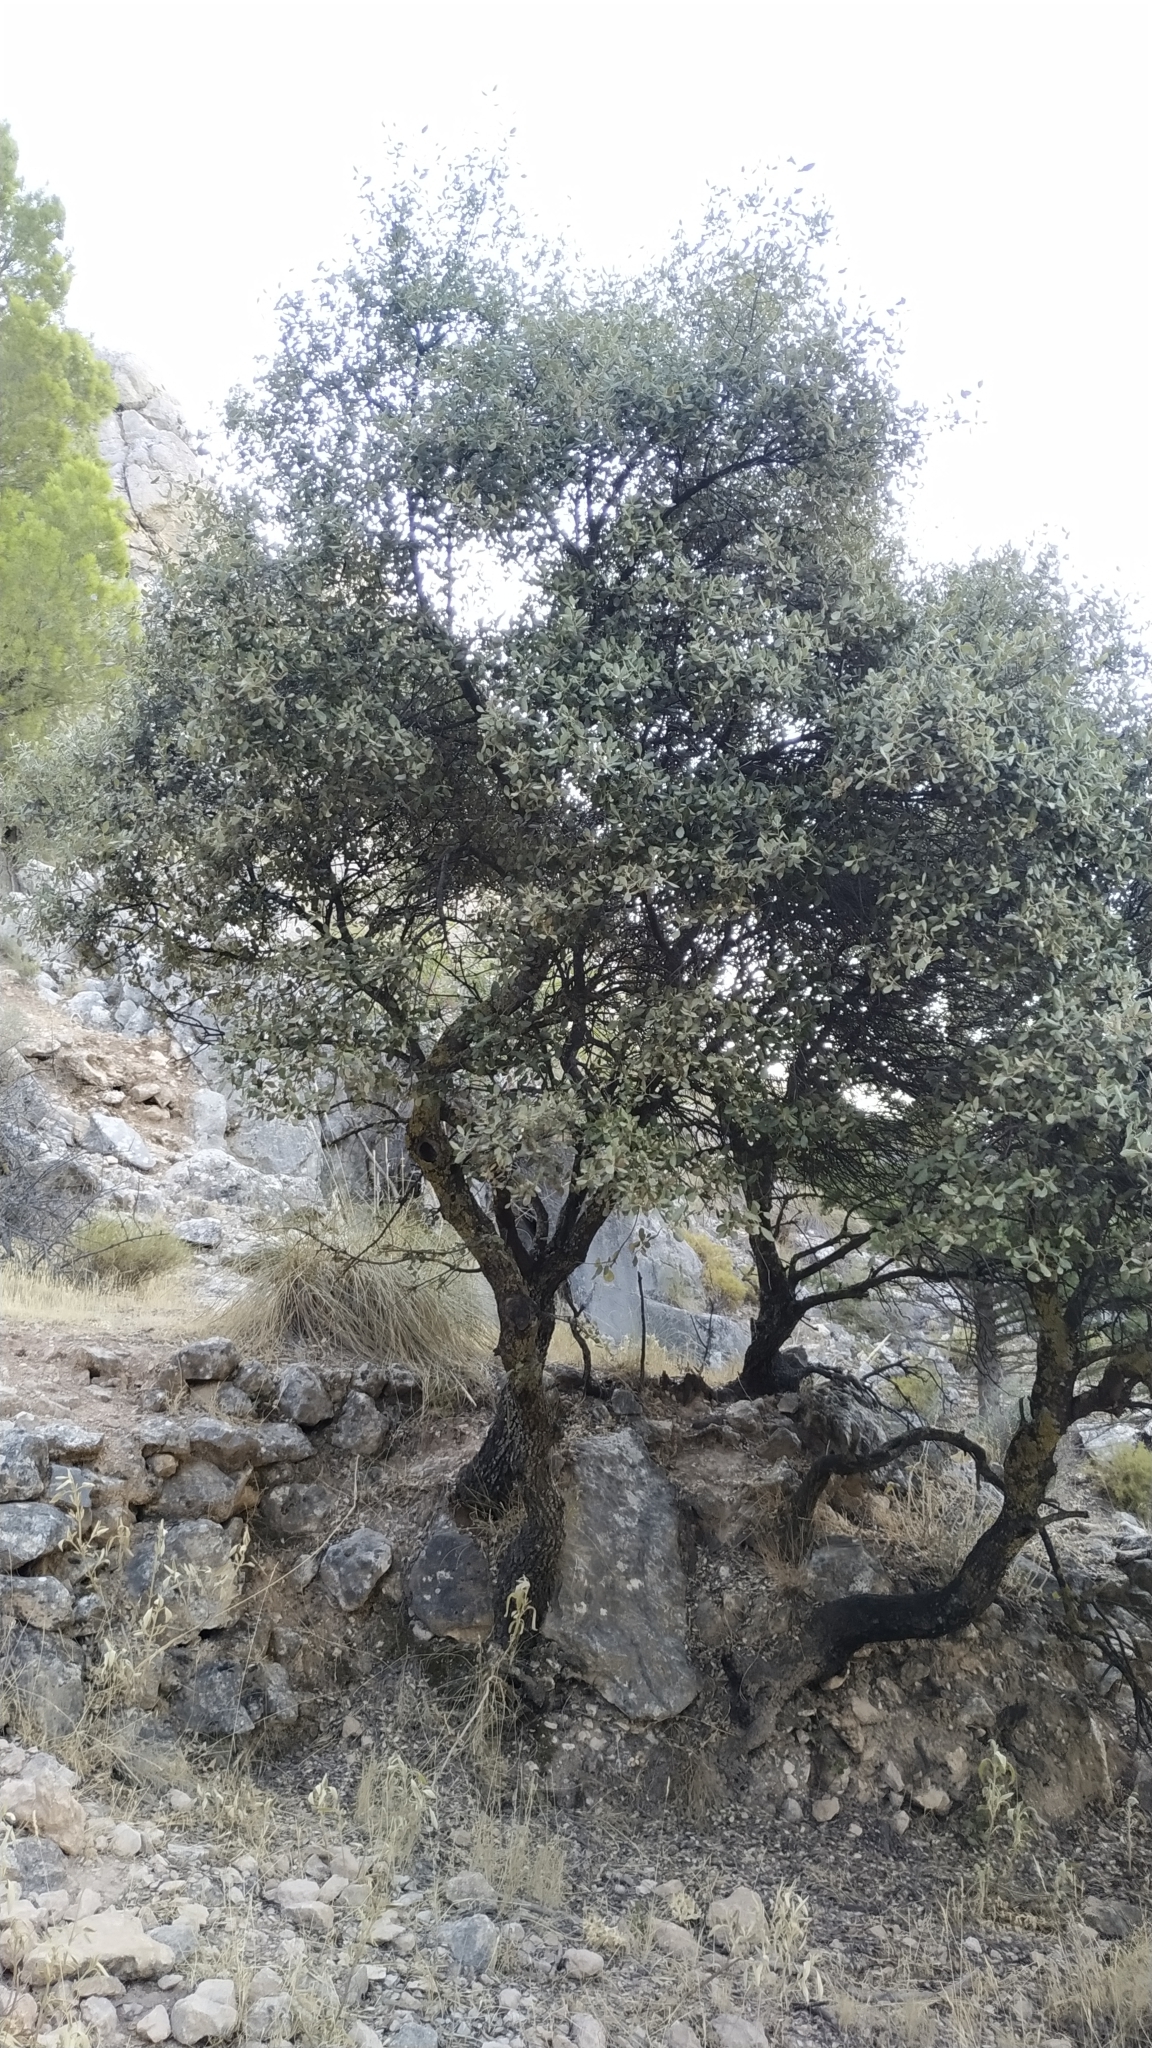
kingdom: Plantae
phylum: Tracheophyta
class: Magnoliopsida
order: Fagales
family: Fagaceae
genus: Quercus
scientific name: Quercus rotundifolia
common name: Holm oak
